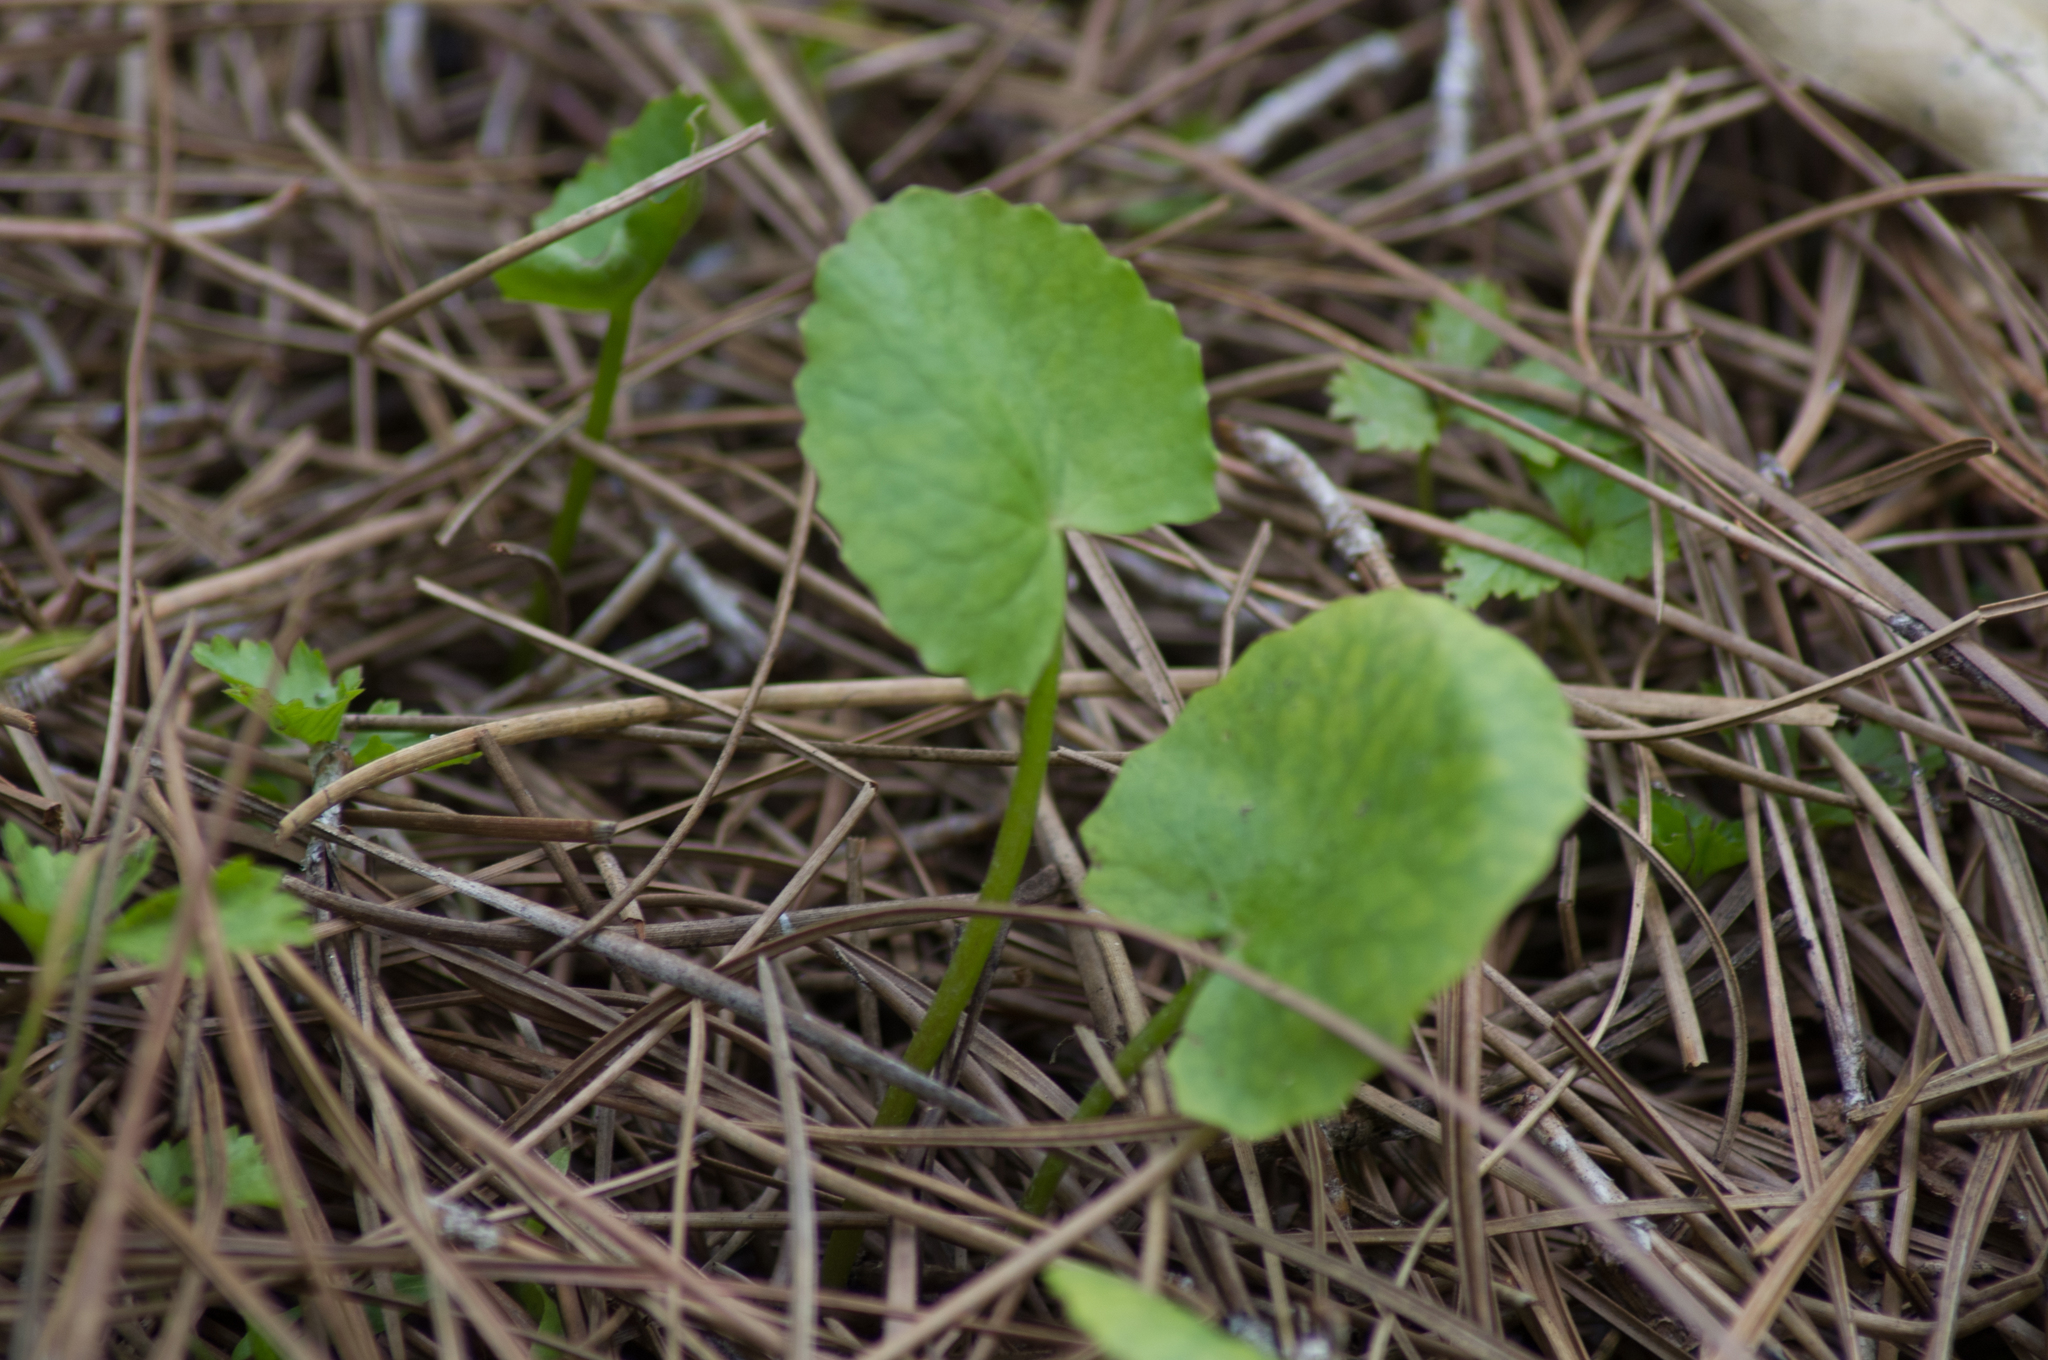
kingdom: Plantae
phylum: Tracheophyta
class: Magnoliopsida
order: Apiales
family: Apiaceae
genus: Centella
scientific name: Centella erecta
